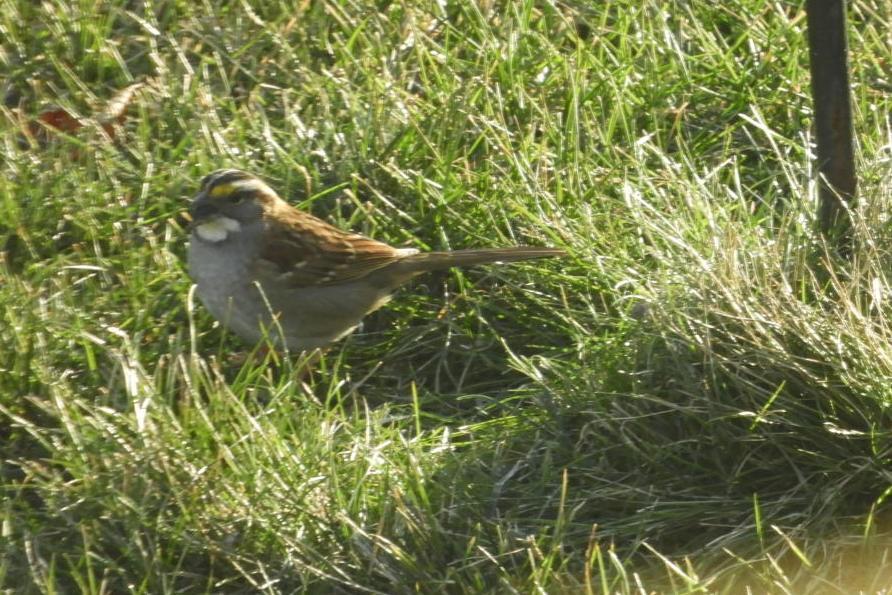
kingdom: Animalia
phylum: Chordata
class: Aves
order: Passeriformes
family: Passerellidae
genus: Zonotrichia
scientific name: Zonotrichia albicollis
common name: White-throated sparrow
